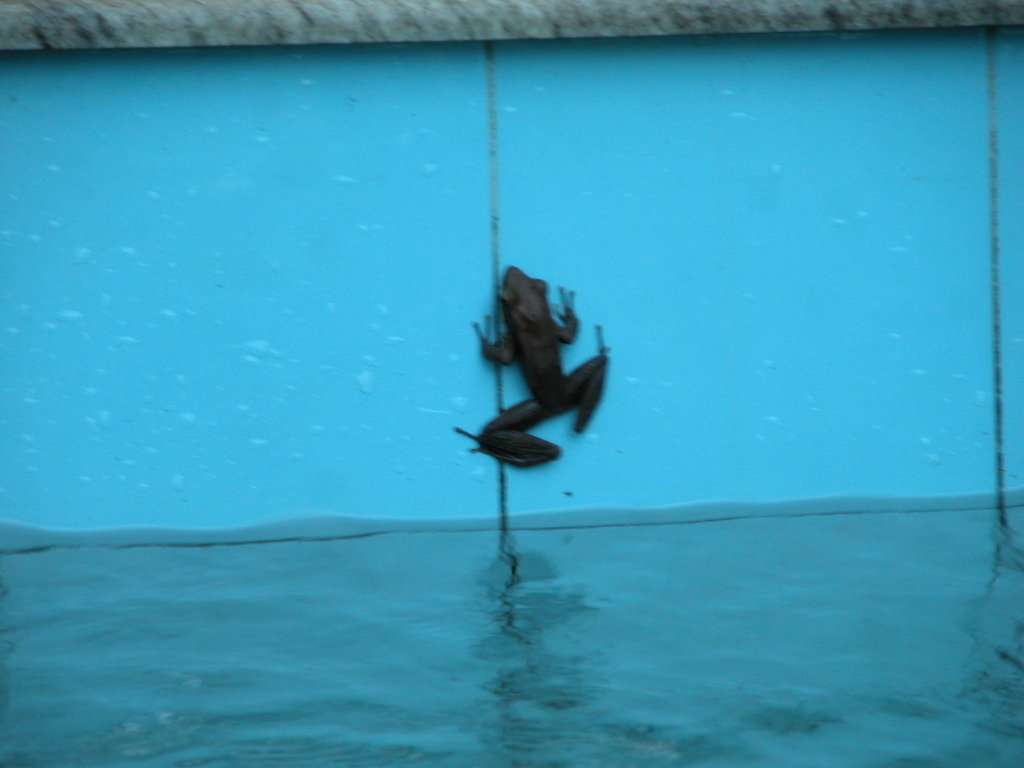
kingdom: Animalia
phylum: Chordata
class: Amphibia
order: Anura
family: Ranidae
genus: Indosylvirana
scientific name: Indosylvirana
